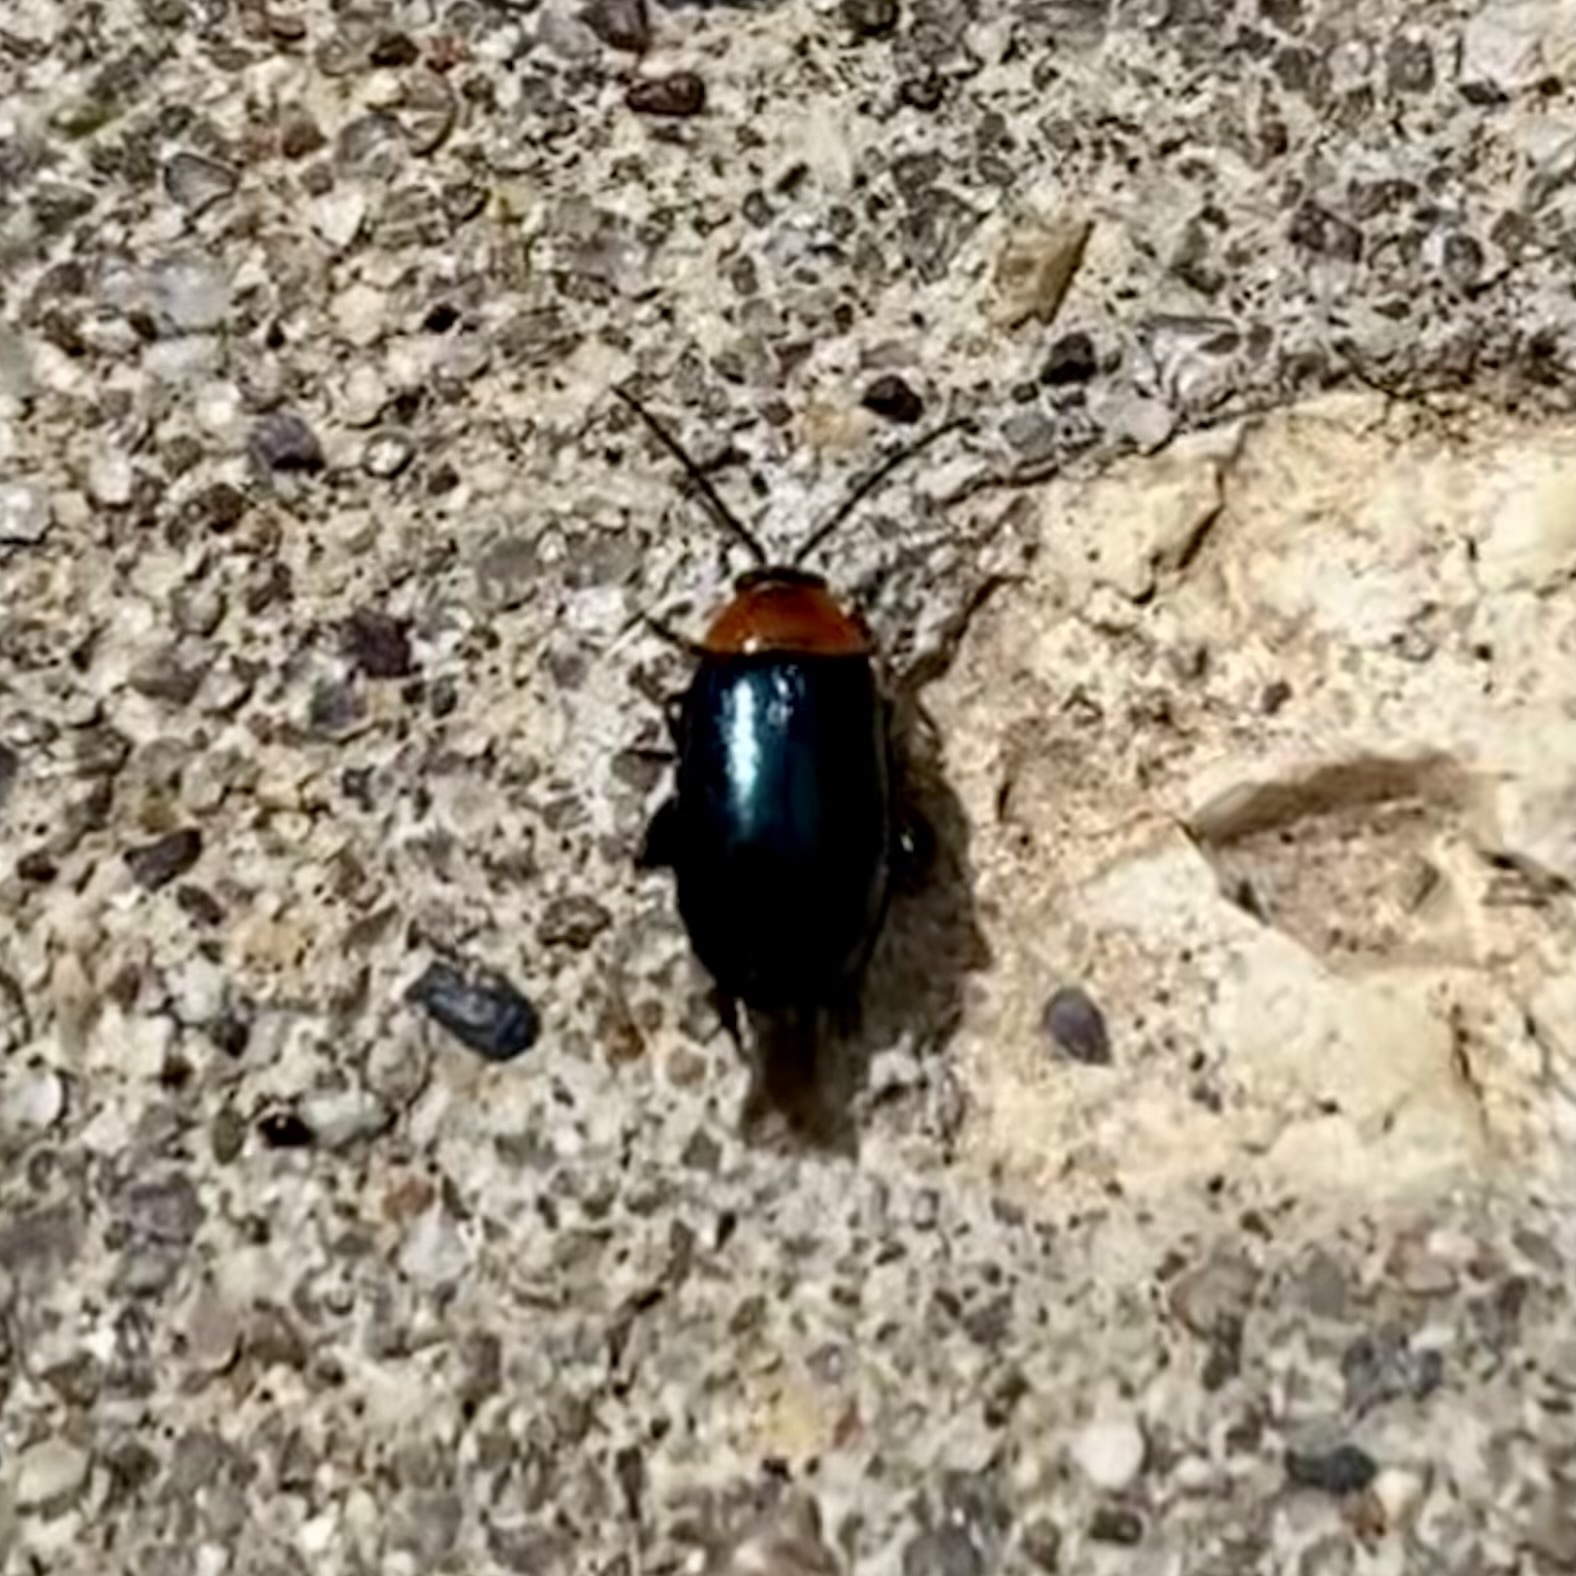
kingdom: Animalia
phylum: Arthropoda
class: Insecta
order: Coleoptera
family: Chrysomelidae
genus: Disonycha
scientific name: Disonycha politula
